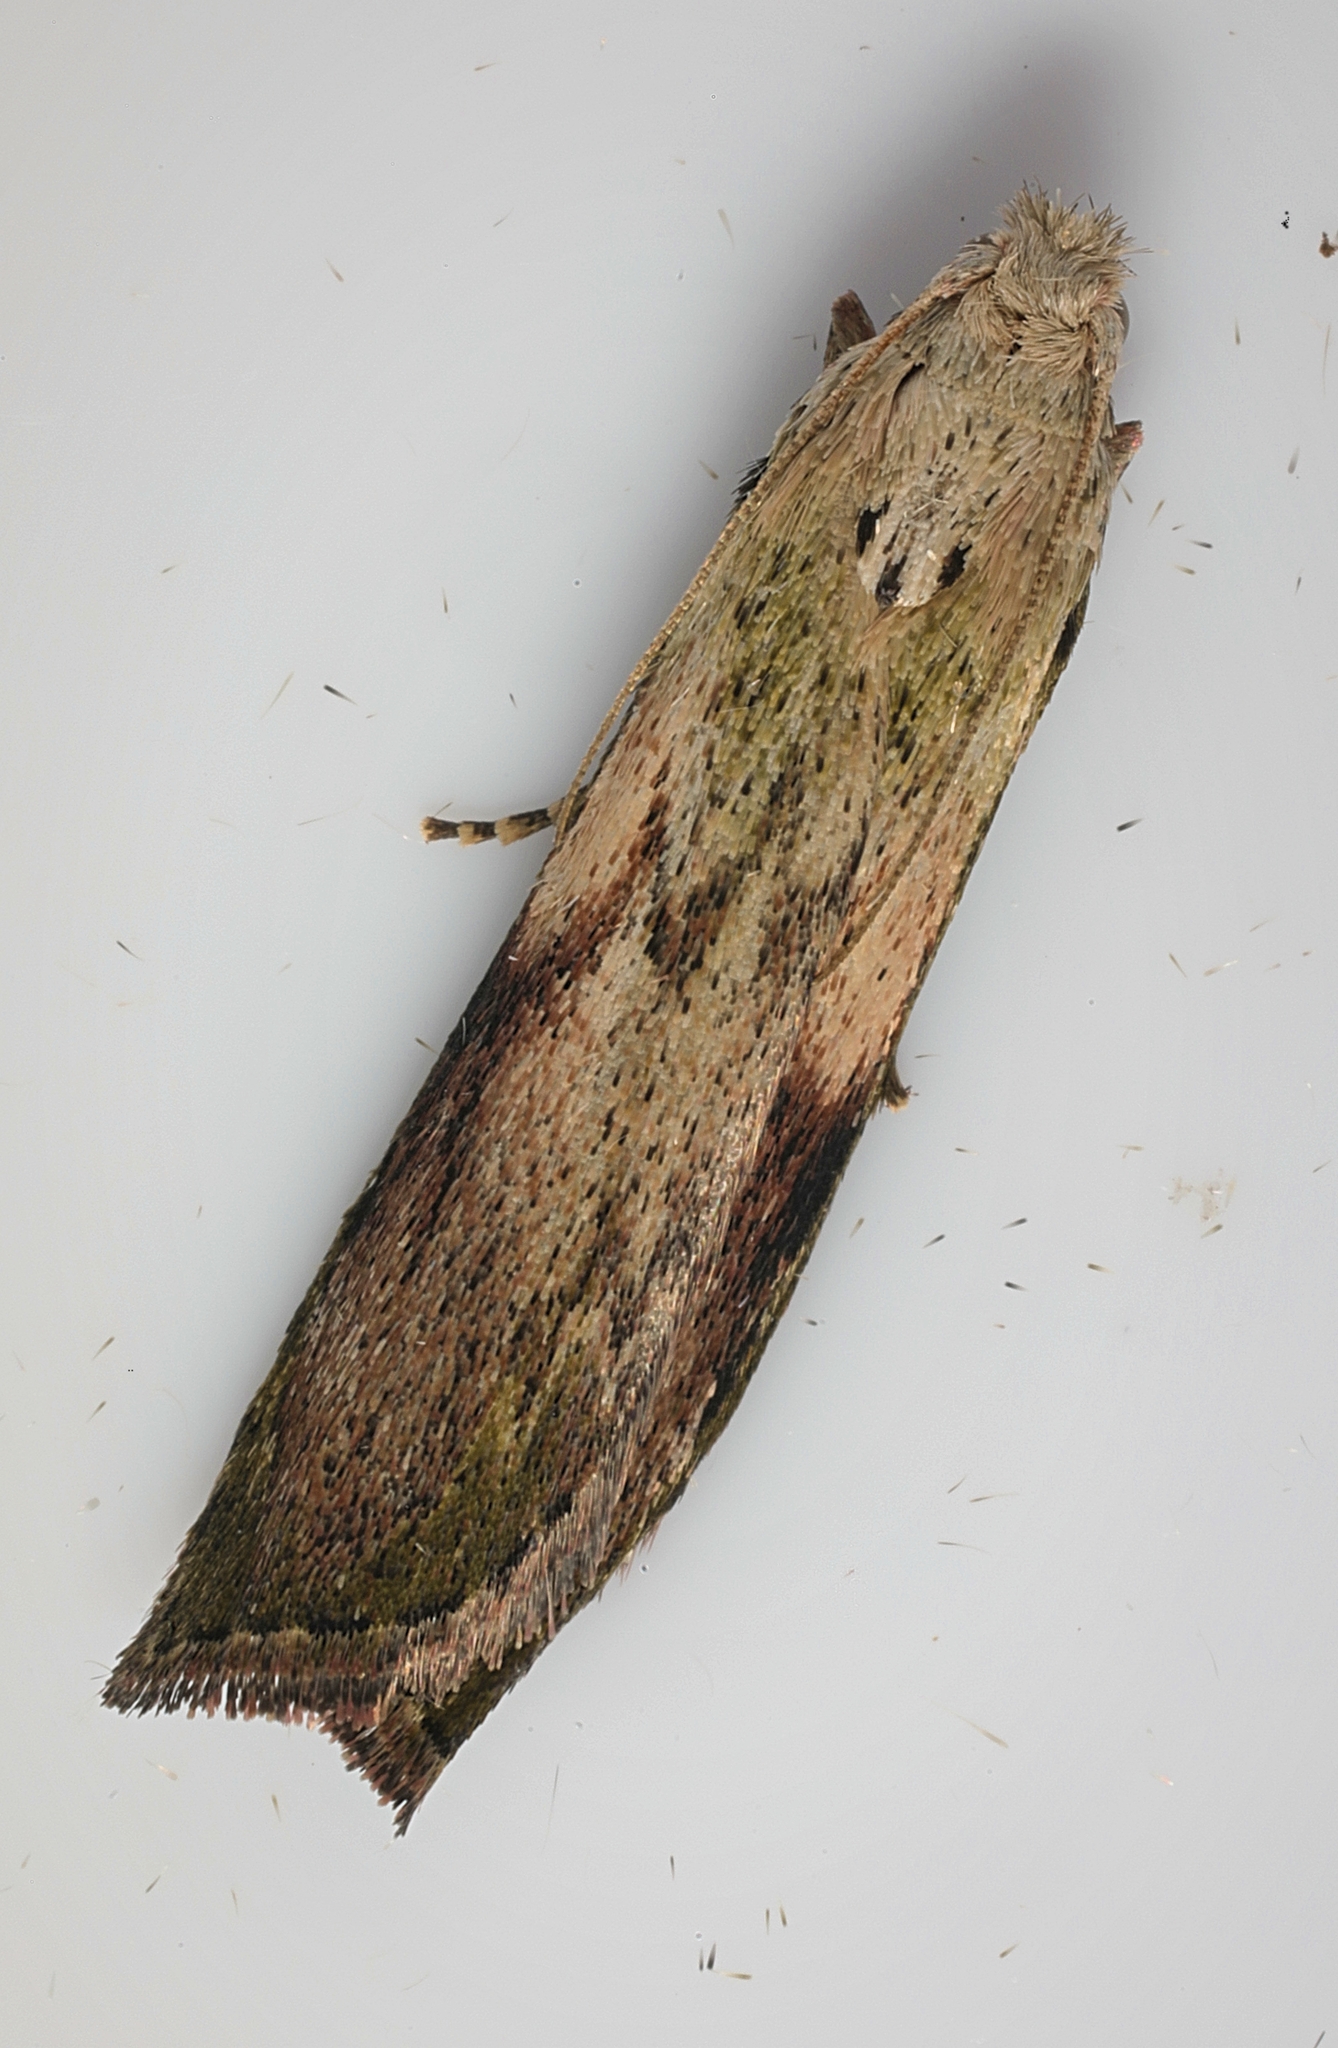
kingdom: Animalia
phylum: Arthropoda
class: Insecta
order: Lepidoptera
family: Pyralidae
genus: Aphomia
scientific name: Aphomia sociella
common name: Bee moth
